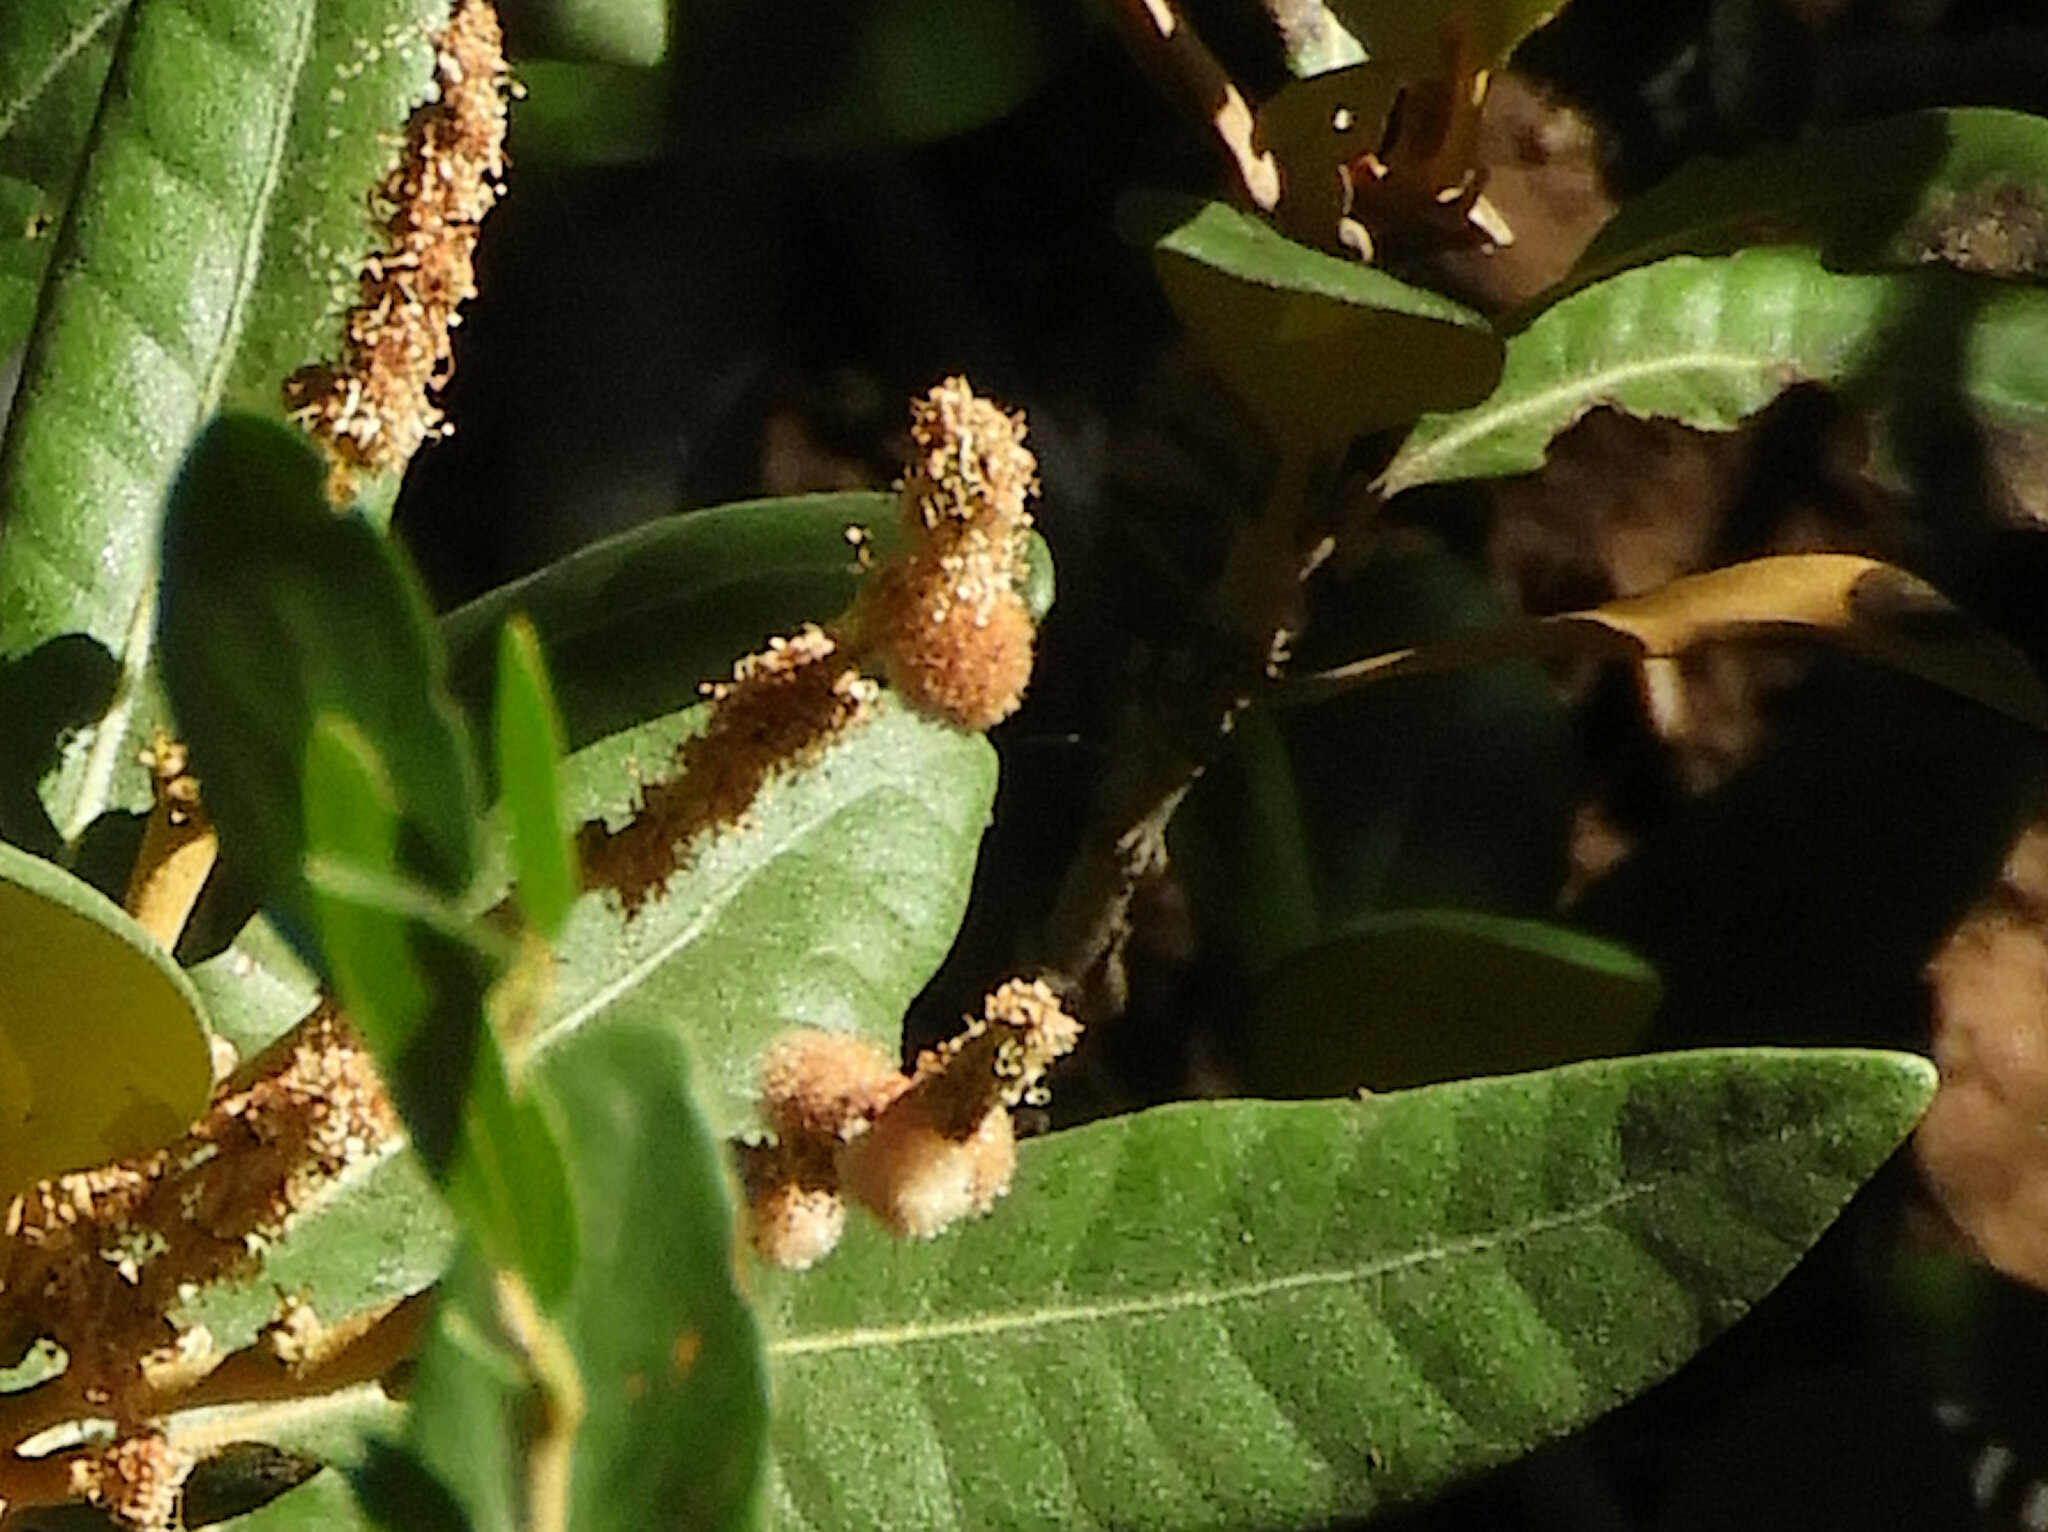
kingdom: Animalia
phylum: Arthropoda
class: Insecta
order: Hymenoptera
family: Cynipidae
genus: Dryocosmus
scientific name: Dryocosmus juliae
